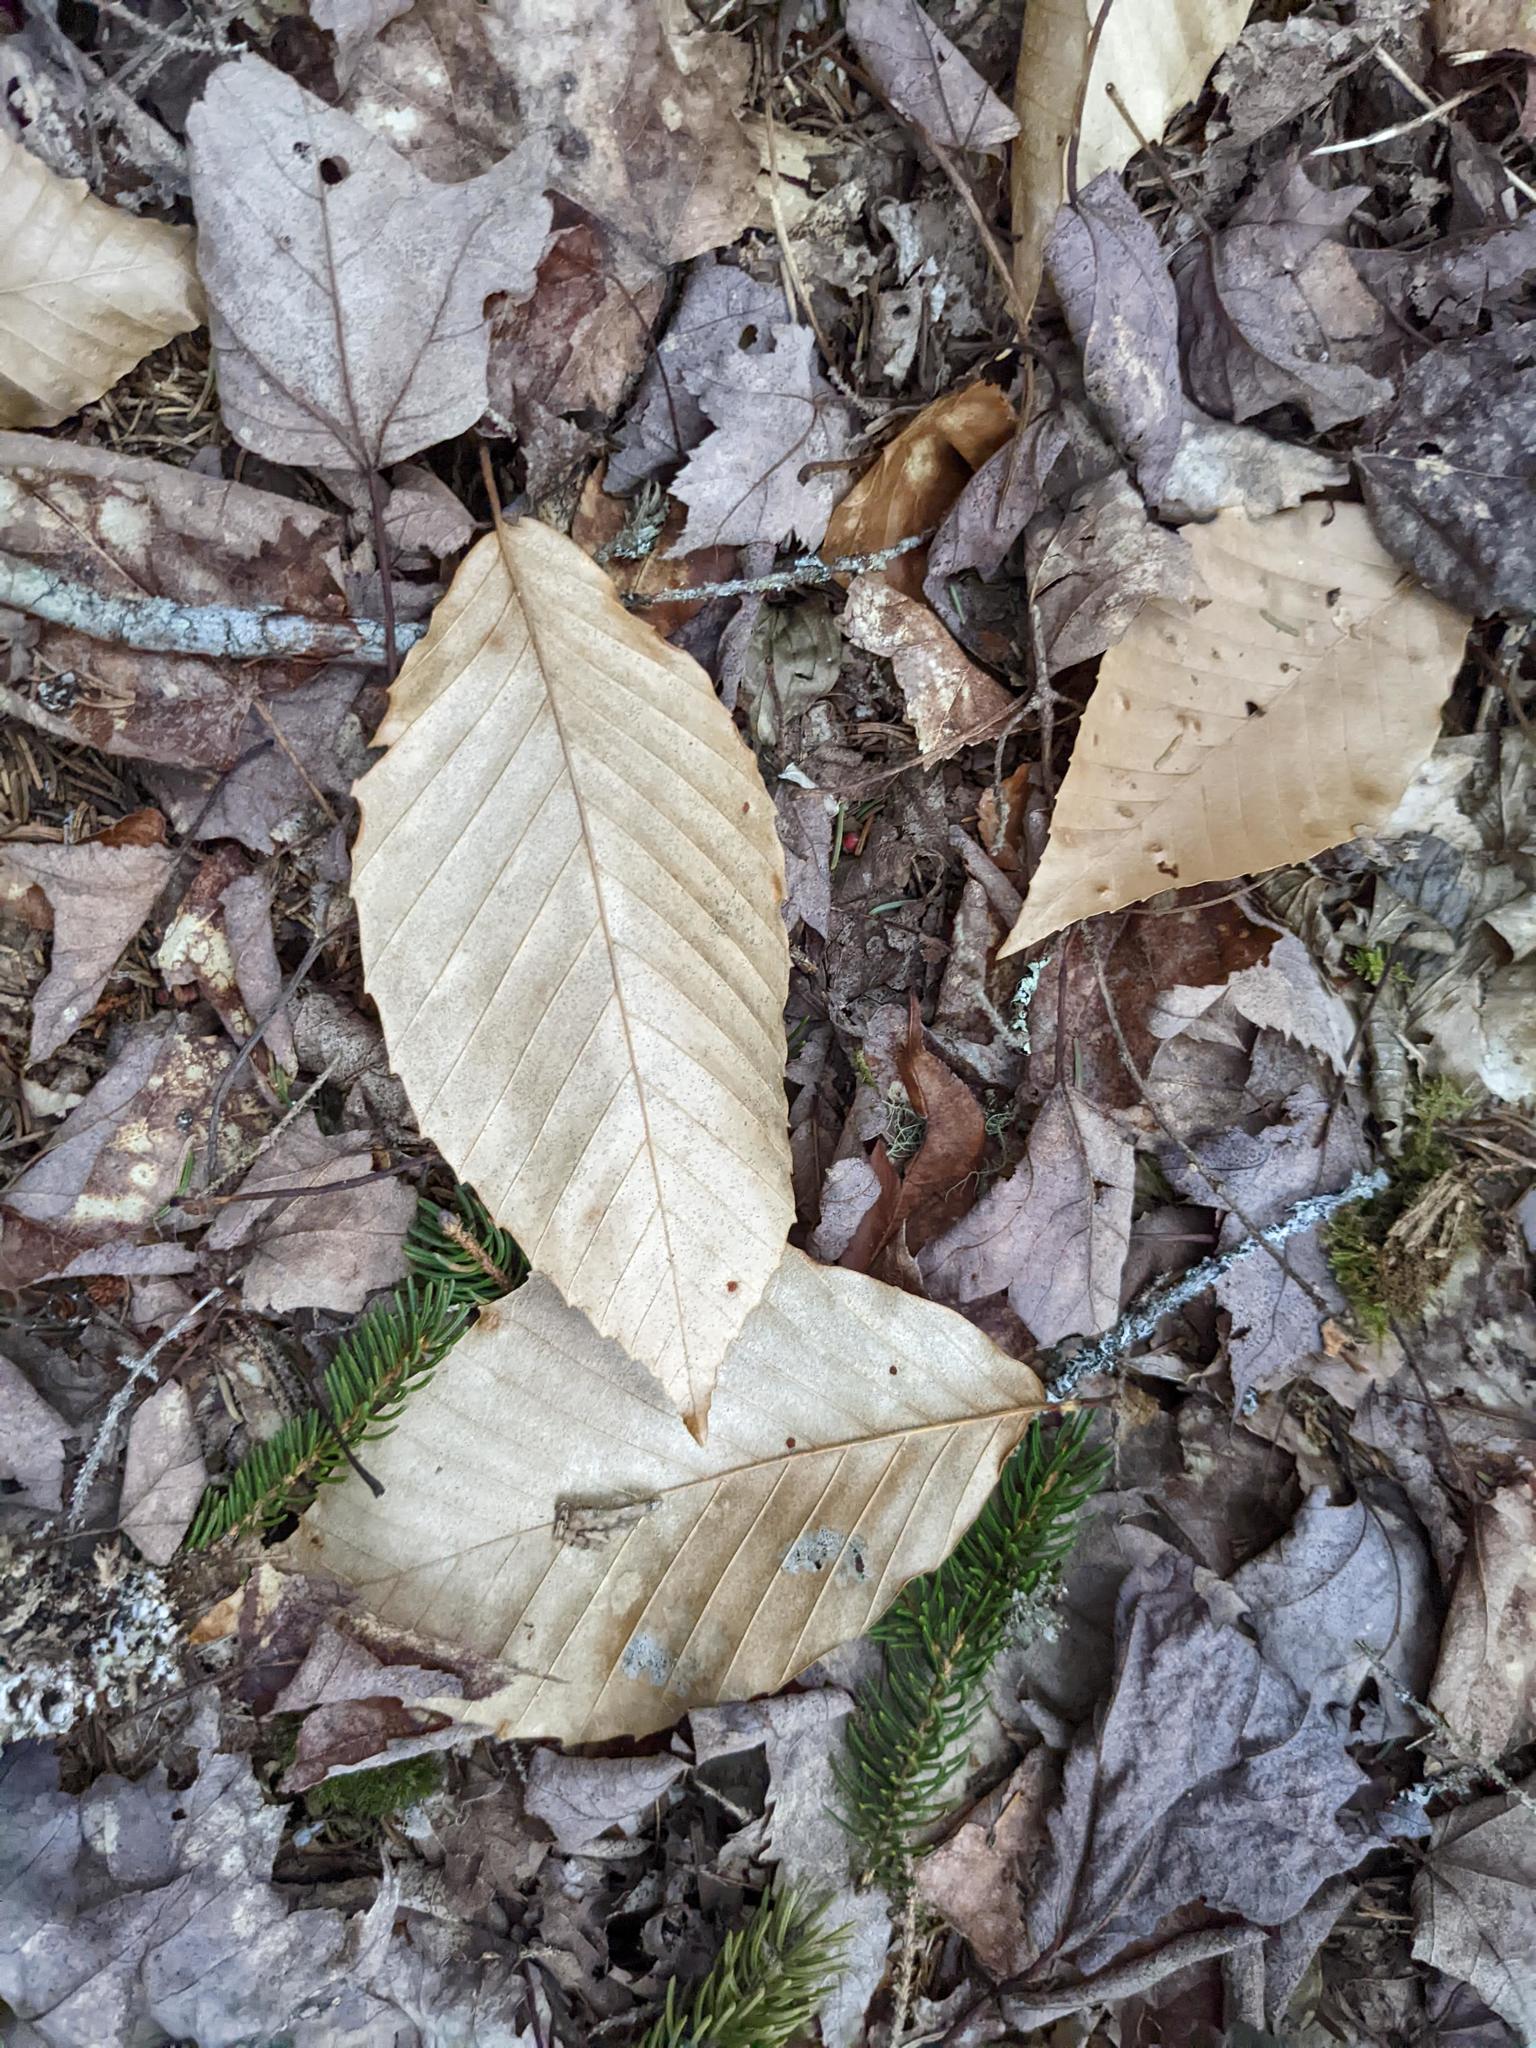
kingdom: Plantae
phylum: Tracheophyta
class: Magnoliopsida
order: Fagales
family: Fagaceae
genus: Fagus
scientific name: Fagus grandifolia
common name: American beech
